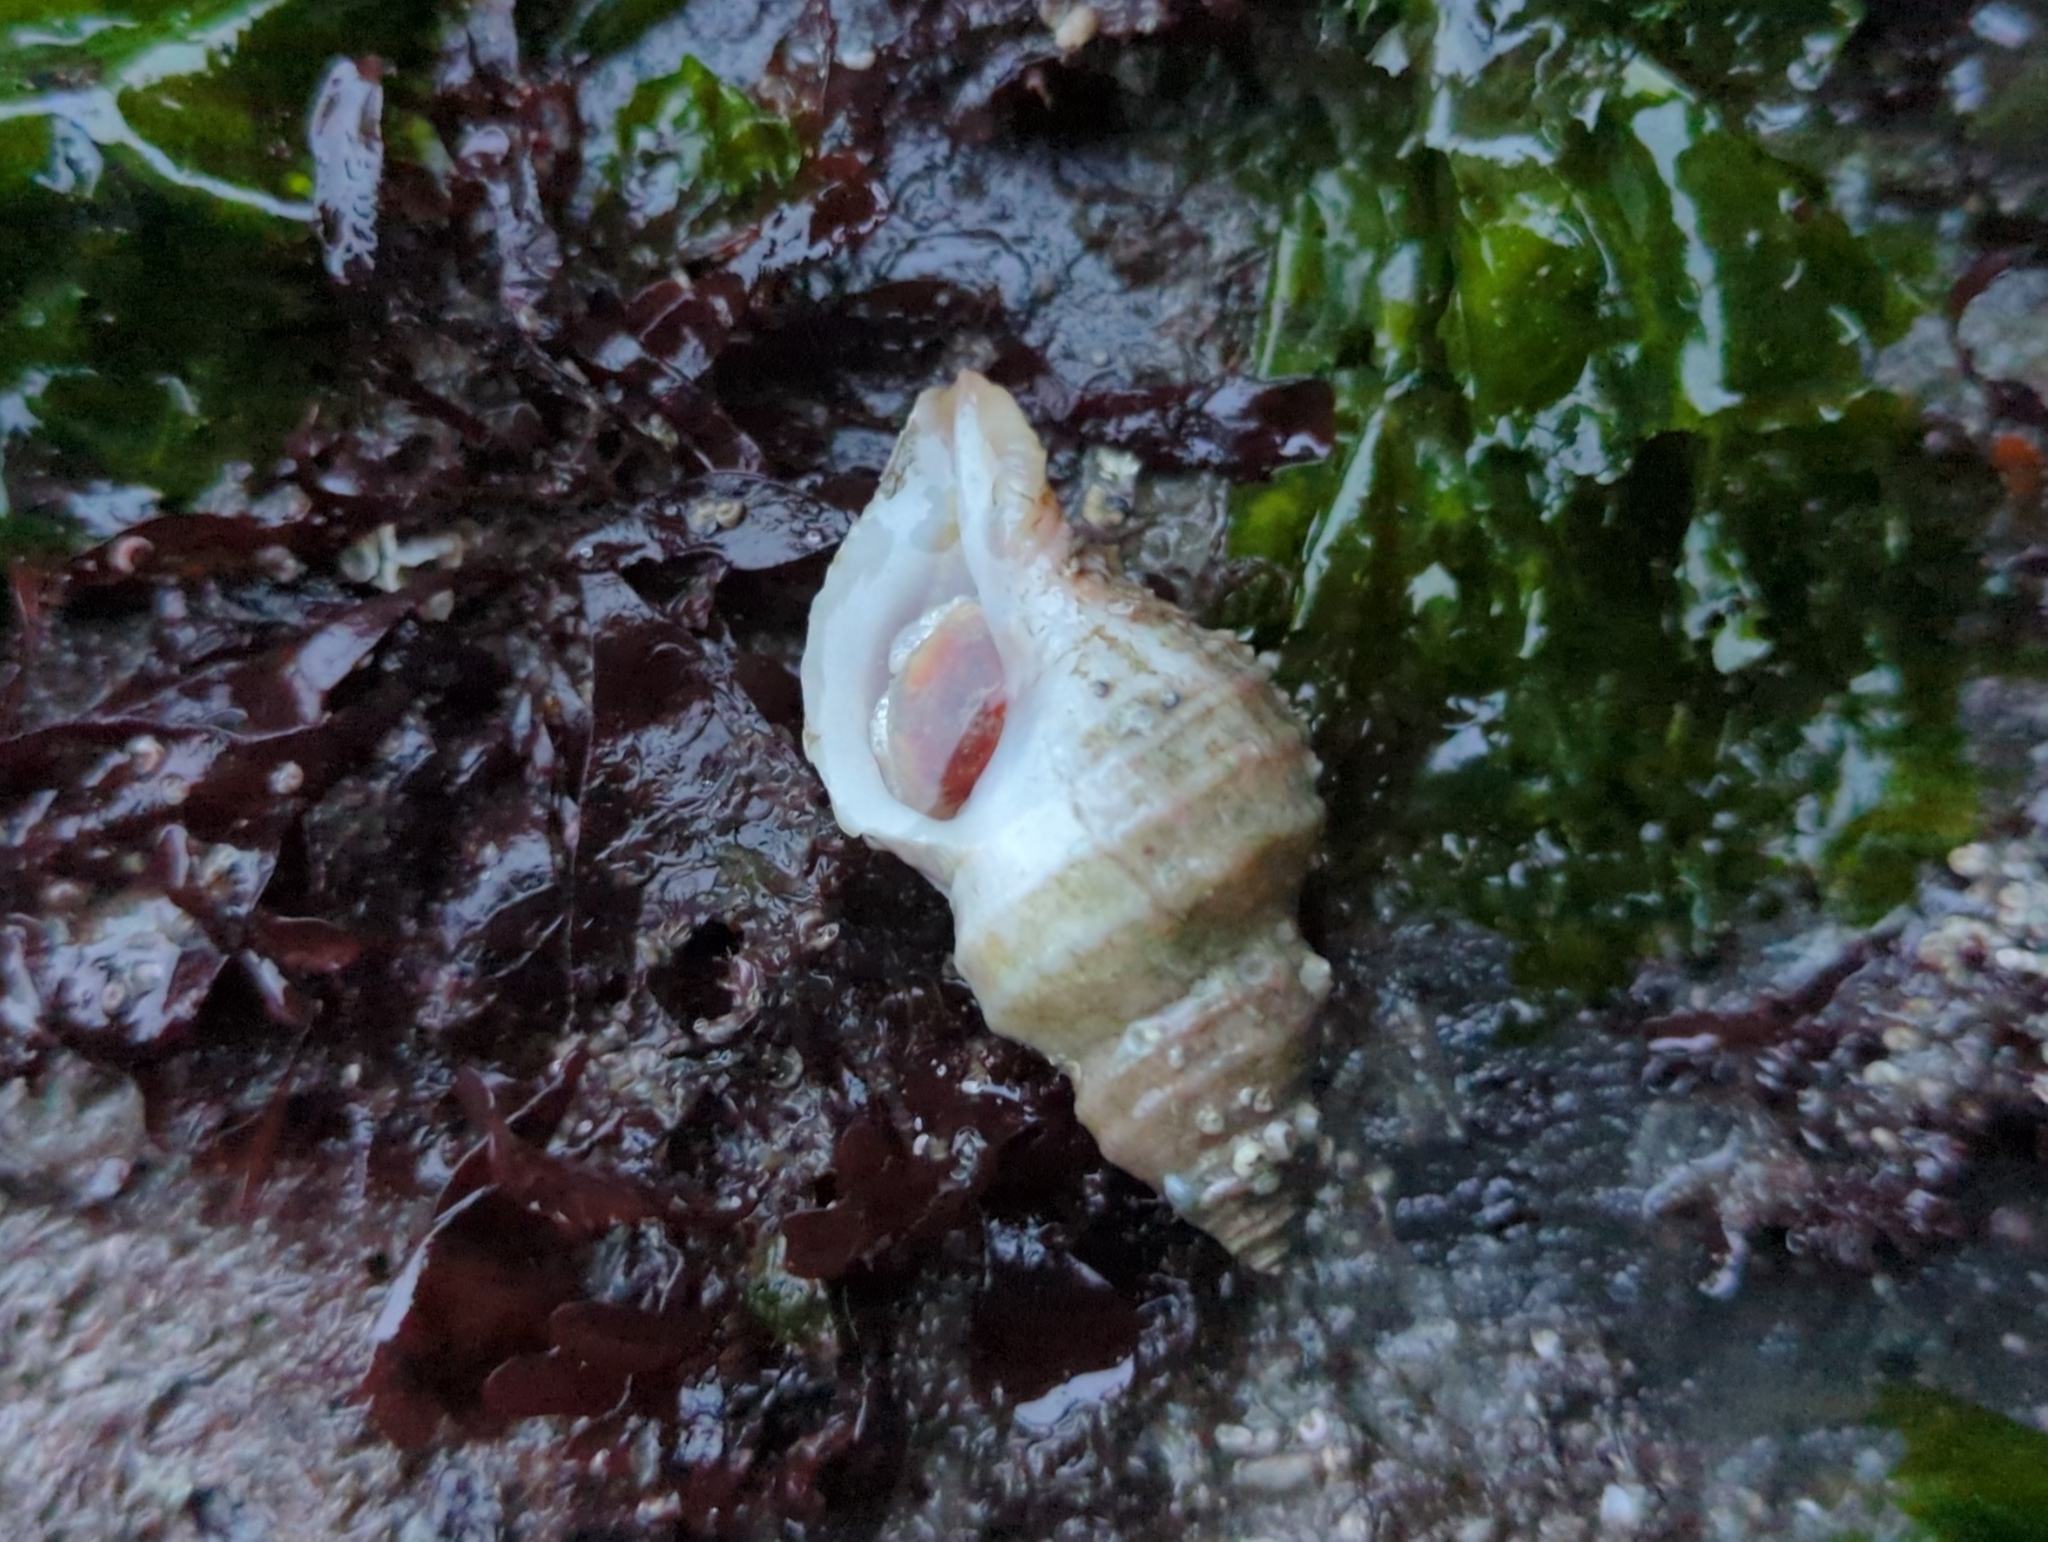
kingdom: Animalia
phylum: Mollusca
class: Gastropoda
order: Neogastropoda
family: Muricidae
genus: Nucella
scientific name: Nucella lamellosa
